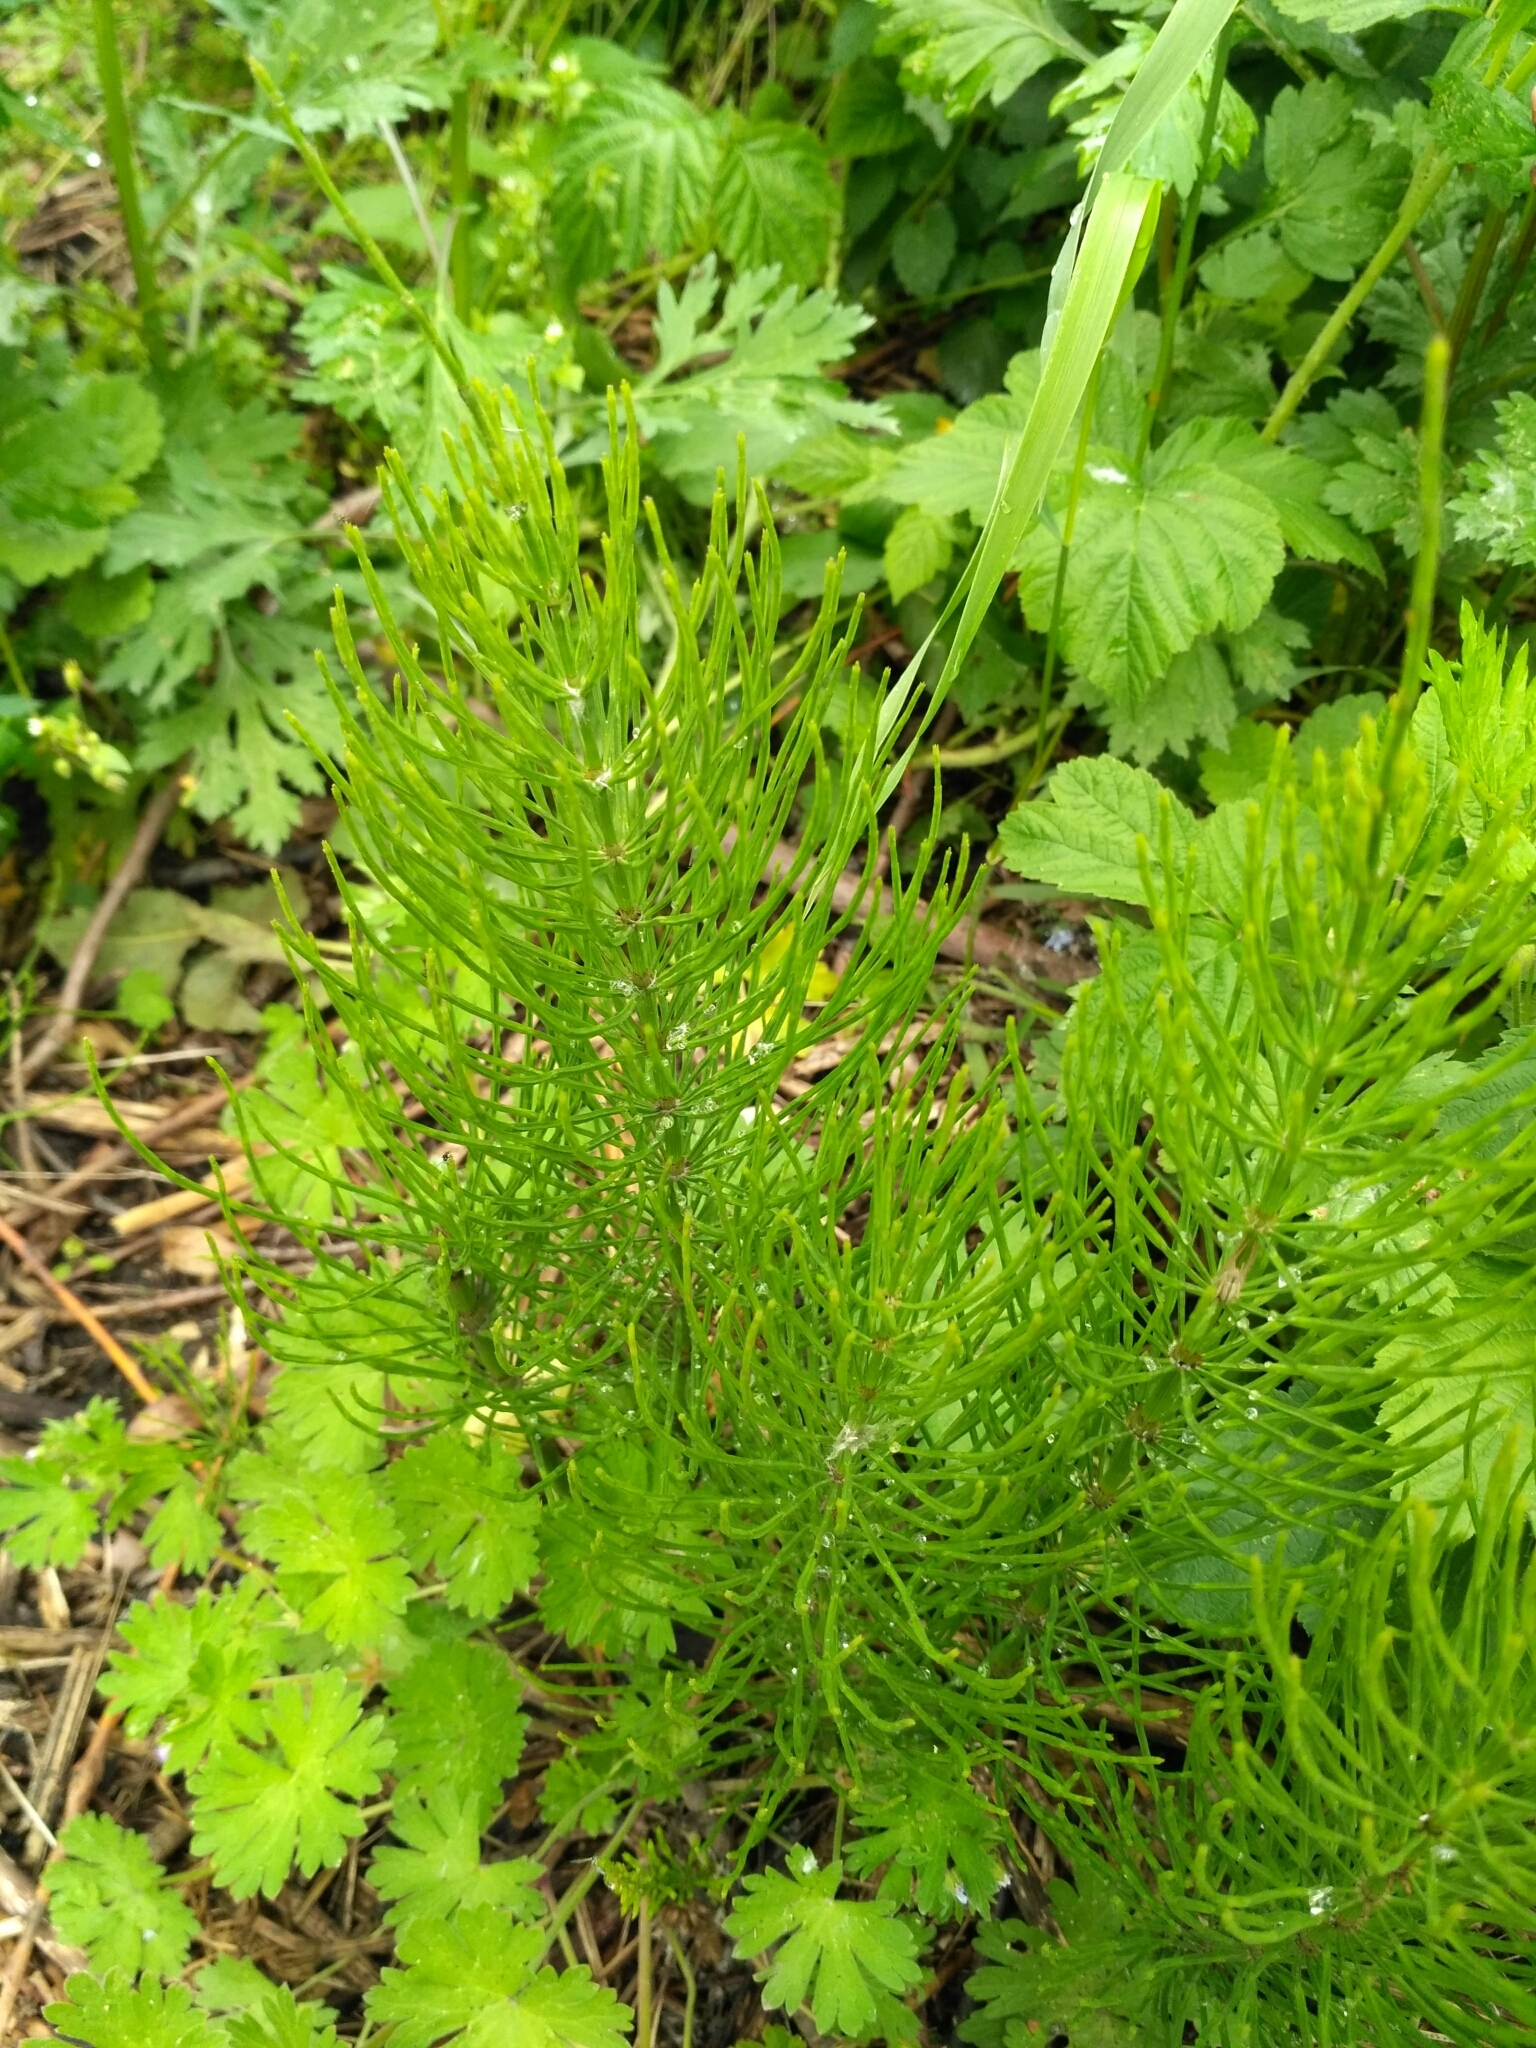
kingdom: Plantae
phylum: Tracheophyta
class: Polypodiopsida
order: Equisetales
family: Equisetaceae
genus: Equisetum
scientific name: Equisetum arvense
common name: Field horsetail
